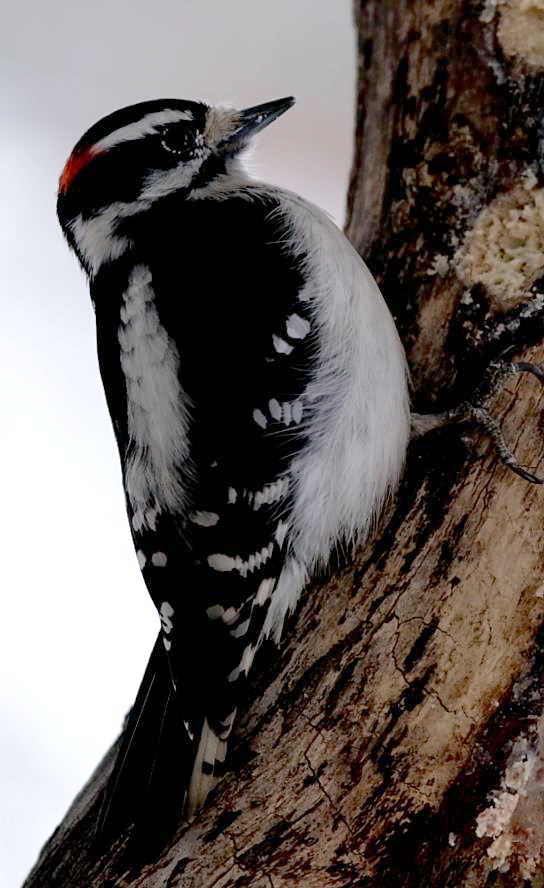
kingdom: Animalia
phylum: Chordata
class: Aves
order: Piciformes
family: Picidae
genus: Dryobates
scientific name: Dryobates pubescens
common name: Downy woodpecker
